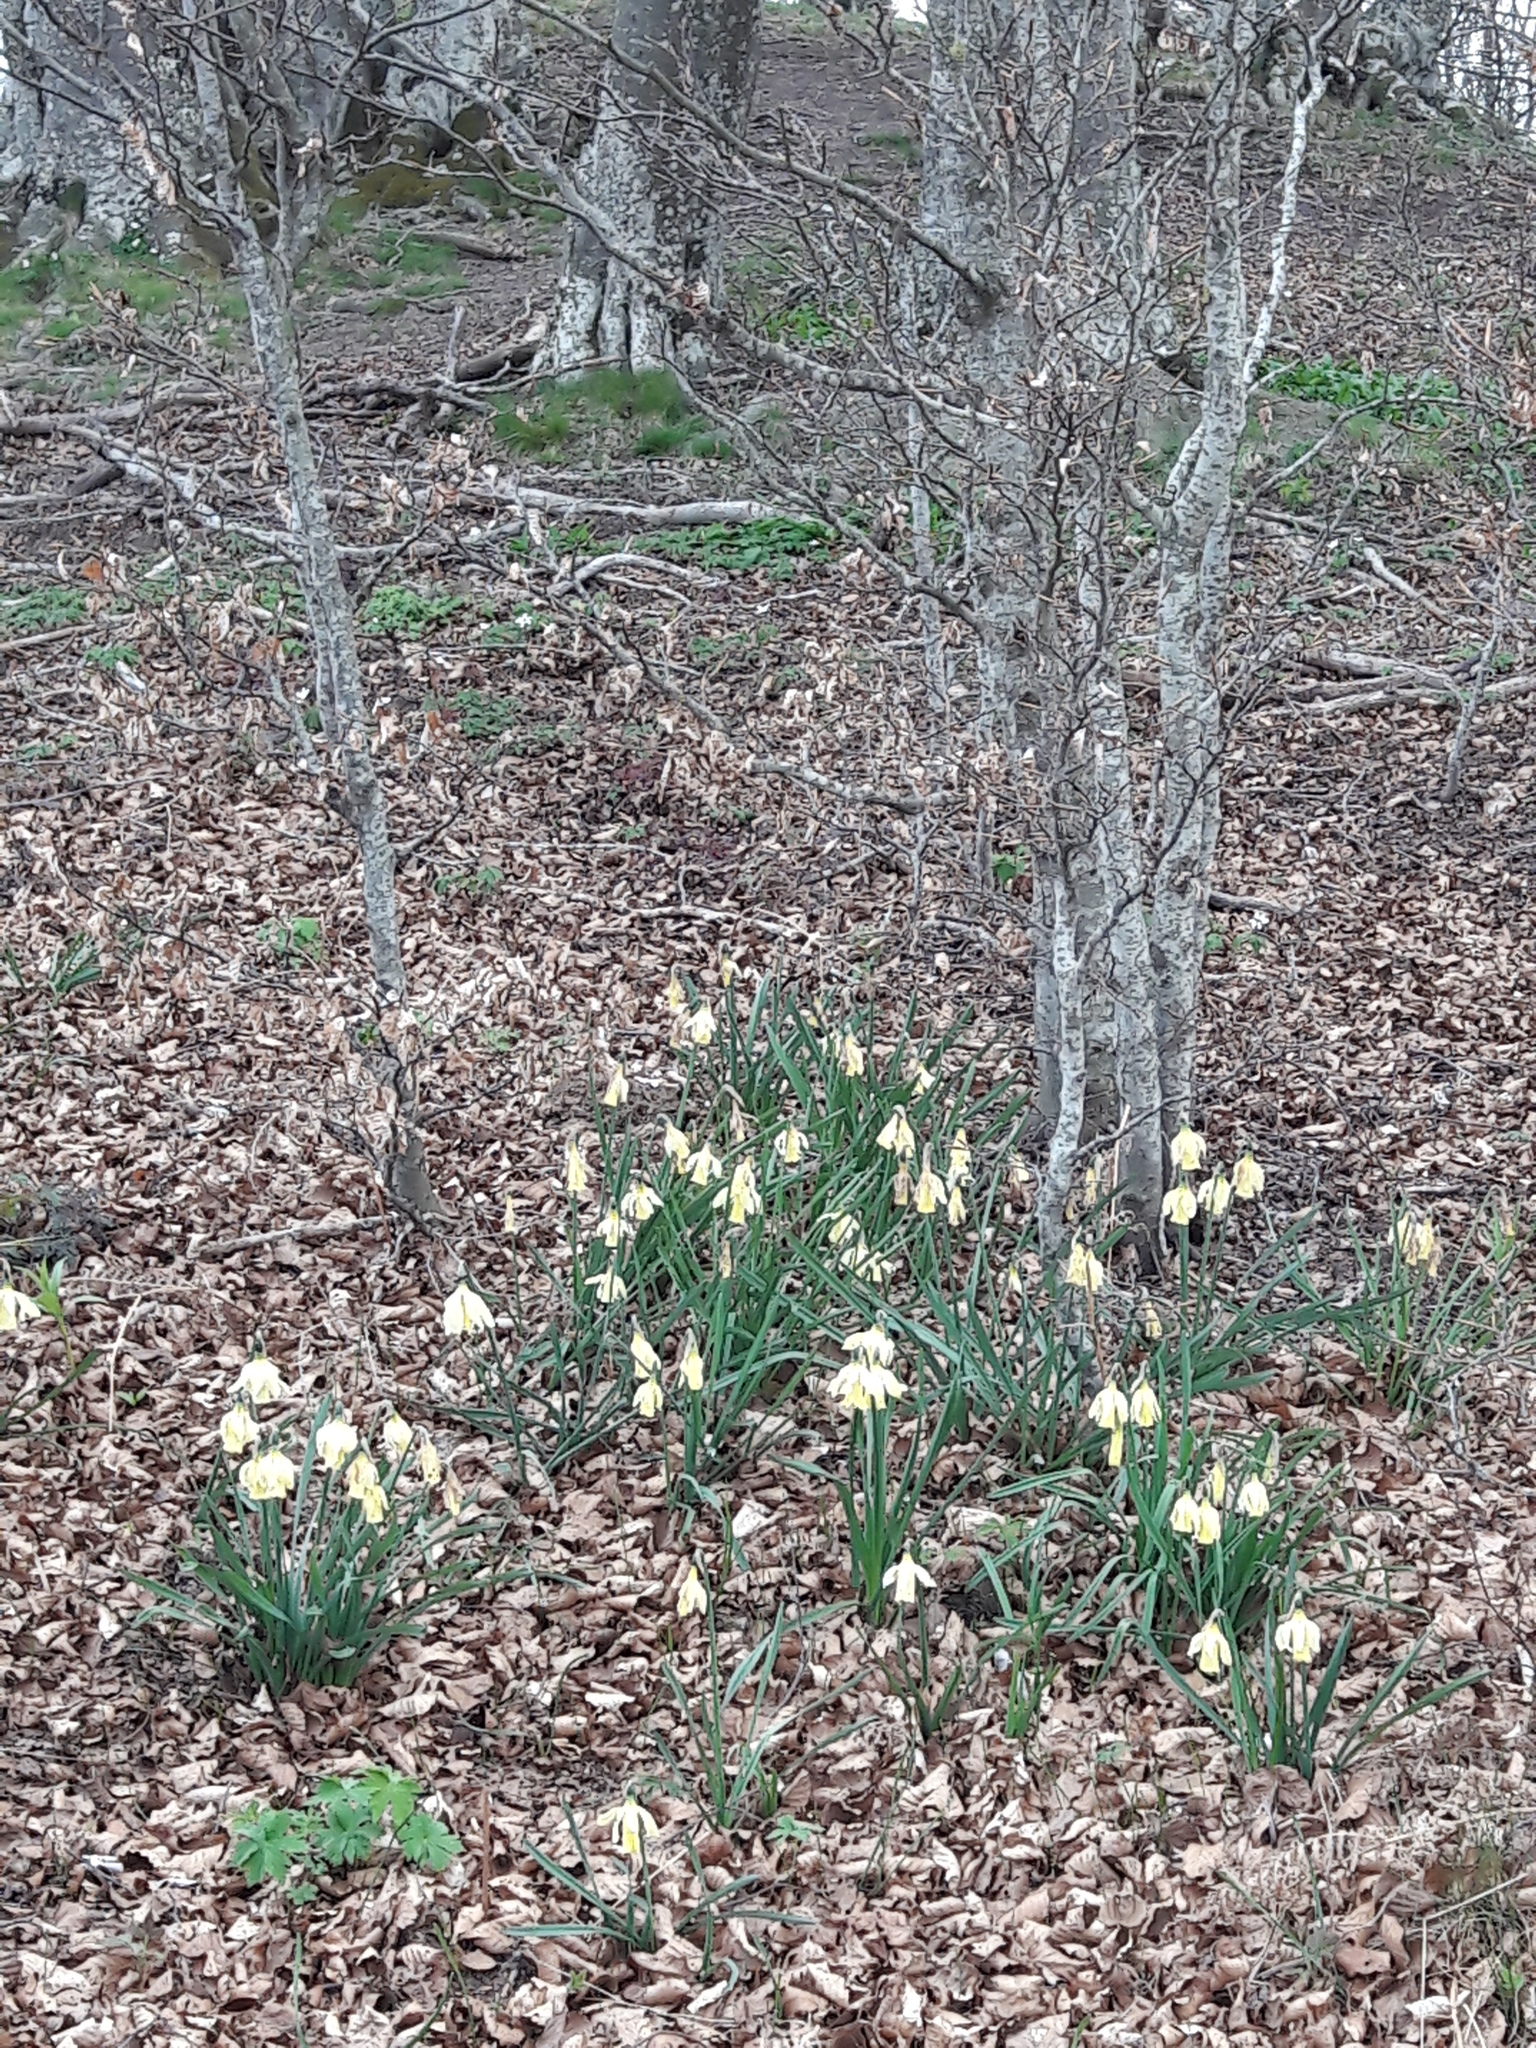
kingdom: Plantae
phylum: Tracheophyta
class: Liliopsida
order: Asparagales
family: Amaryllidaceae
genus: Narcissus
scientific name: Narcissus moleroi
